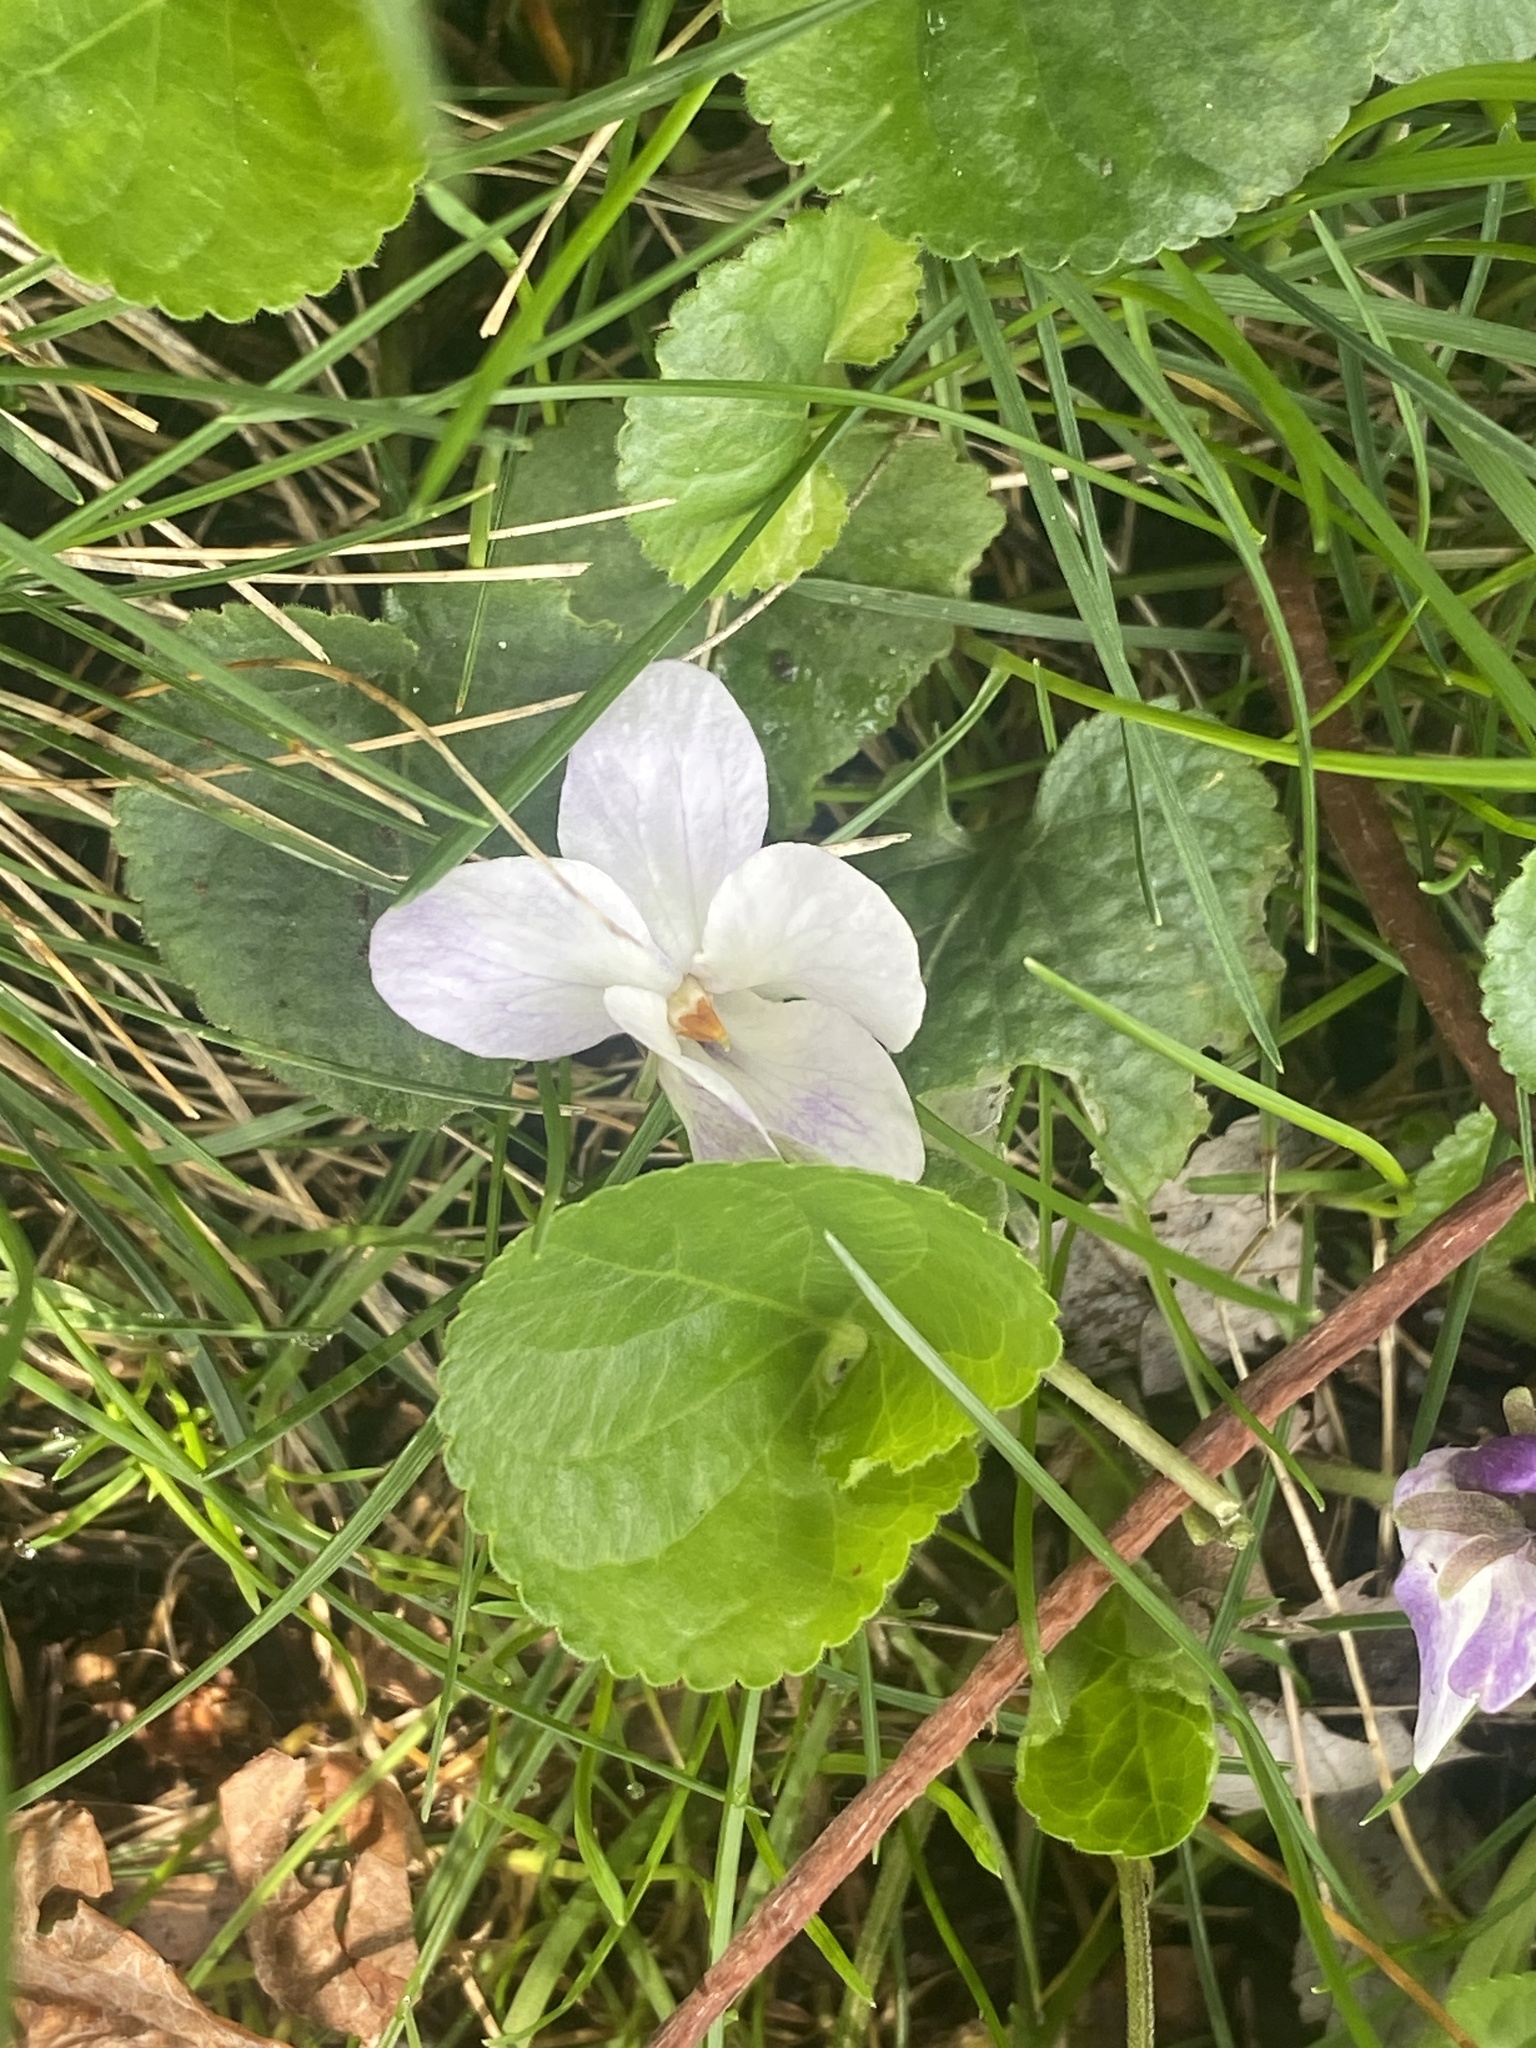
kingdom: Plantae
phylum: Tracheophyta
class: Magnoliopsida
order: Malpighiales
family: Violaceae
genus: Viola
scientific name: Viola odorata
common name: Sweet violet
